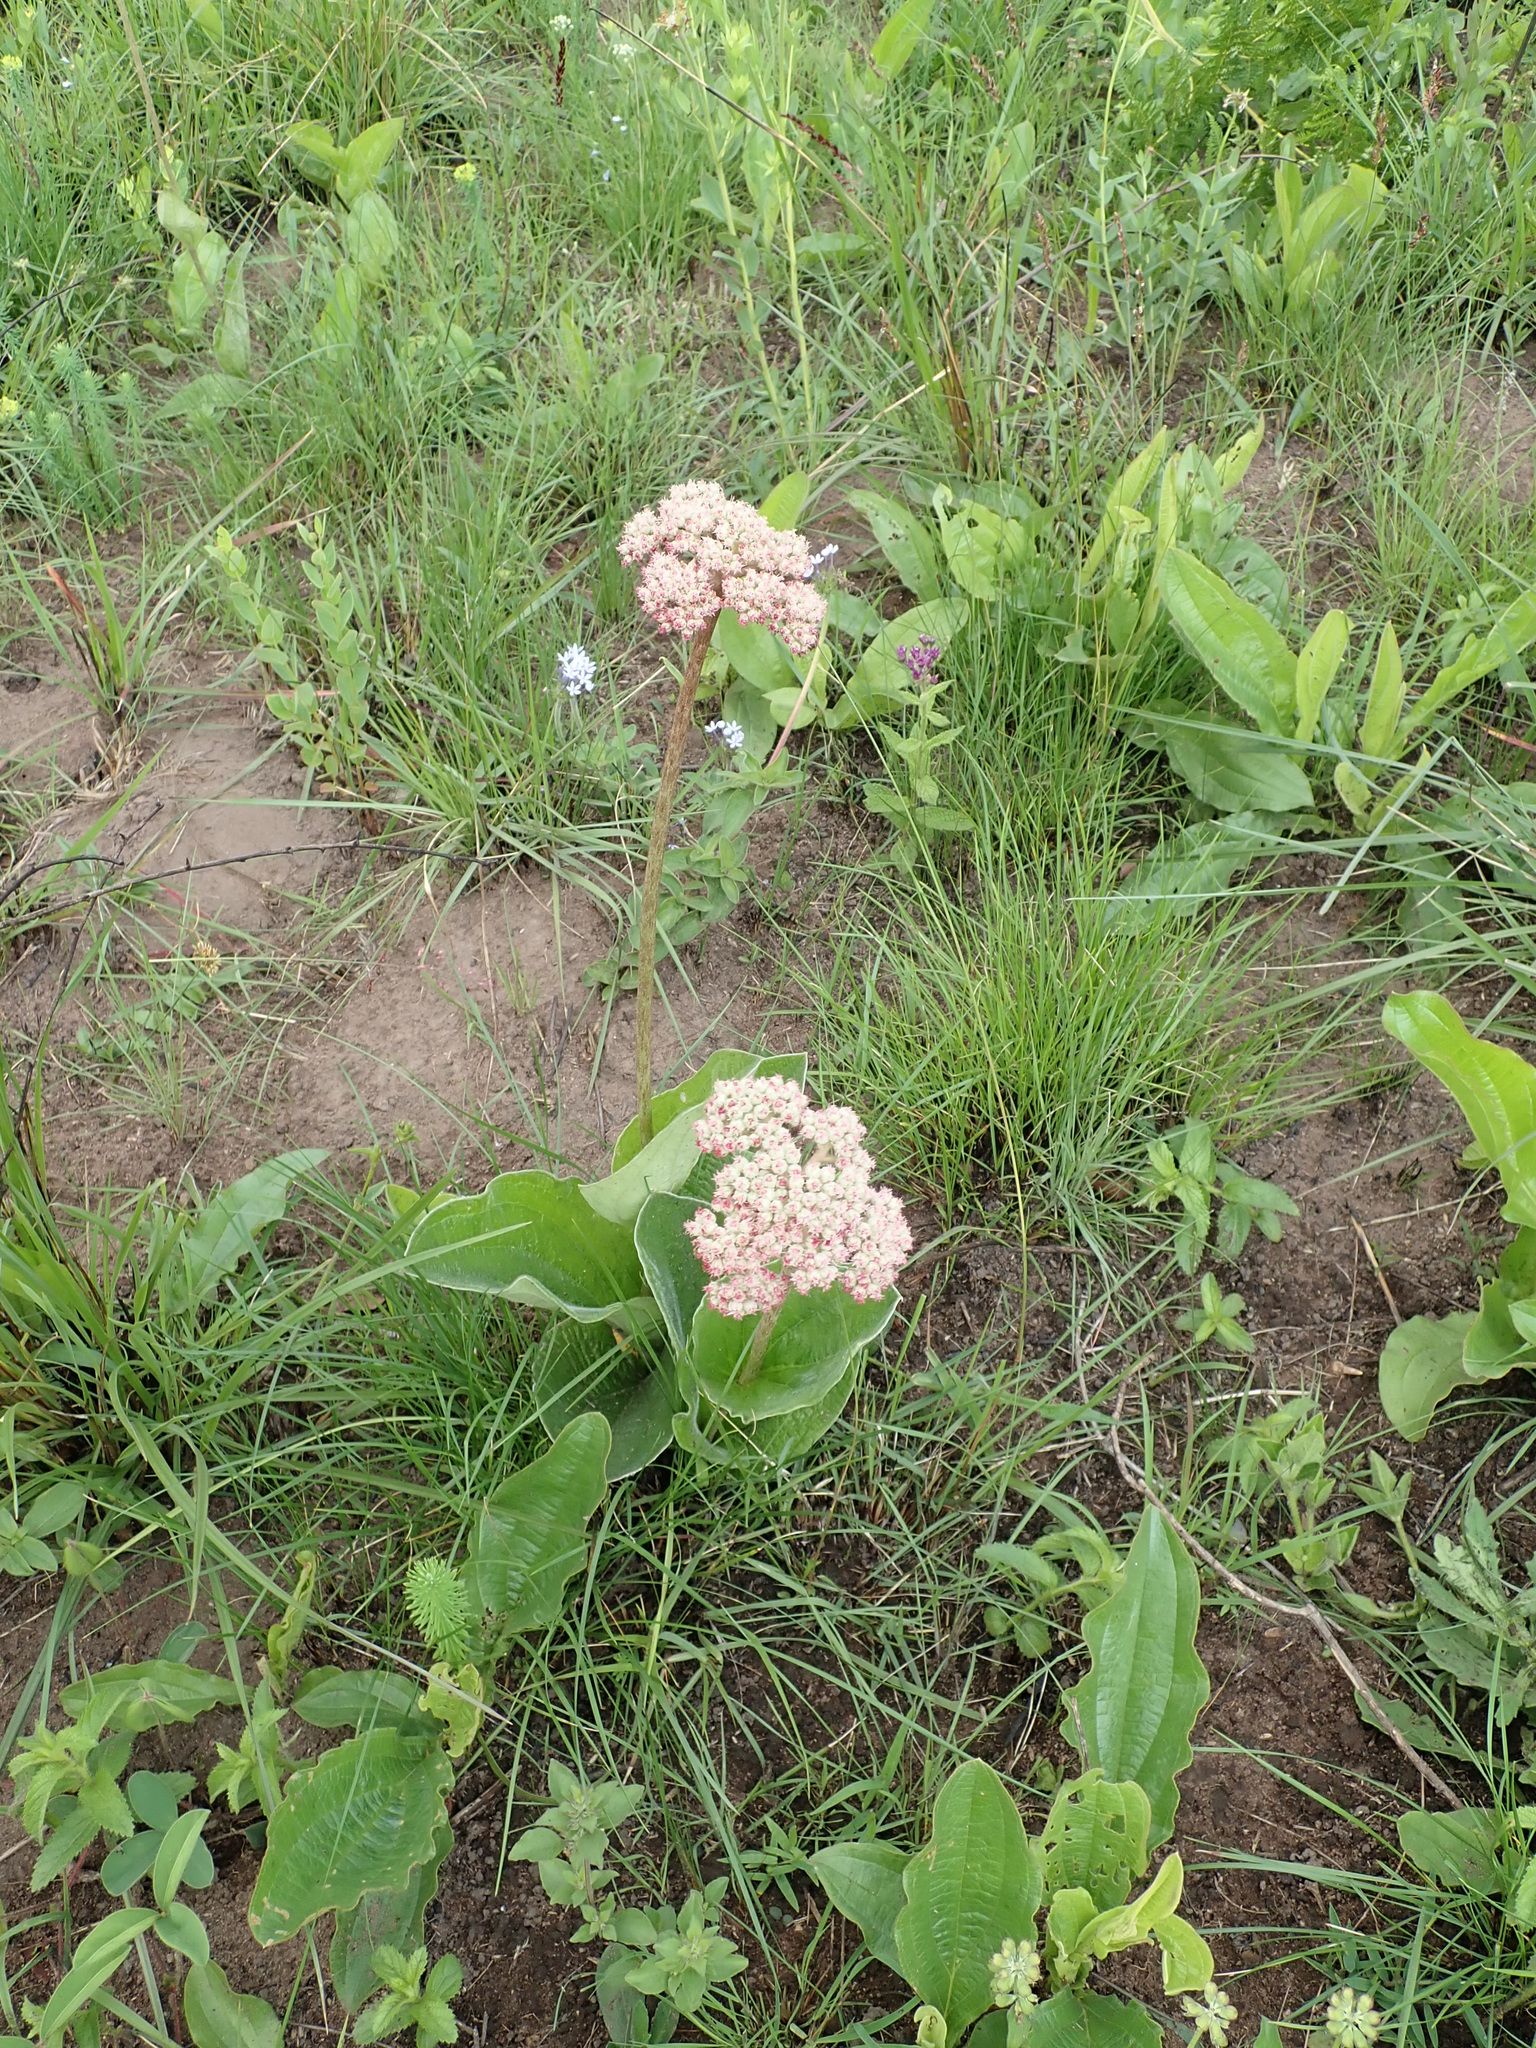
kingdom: Plantae
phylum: Tracheophyta
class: Magnoliopsida
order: Asterales
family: Asteraceae
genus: Helichrysum
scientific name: Helichrysum griseum
